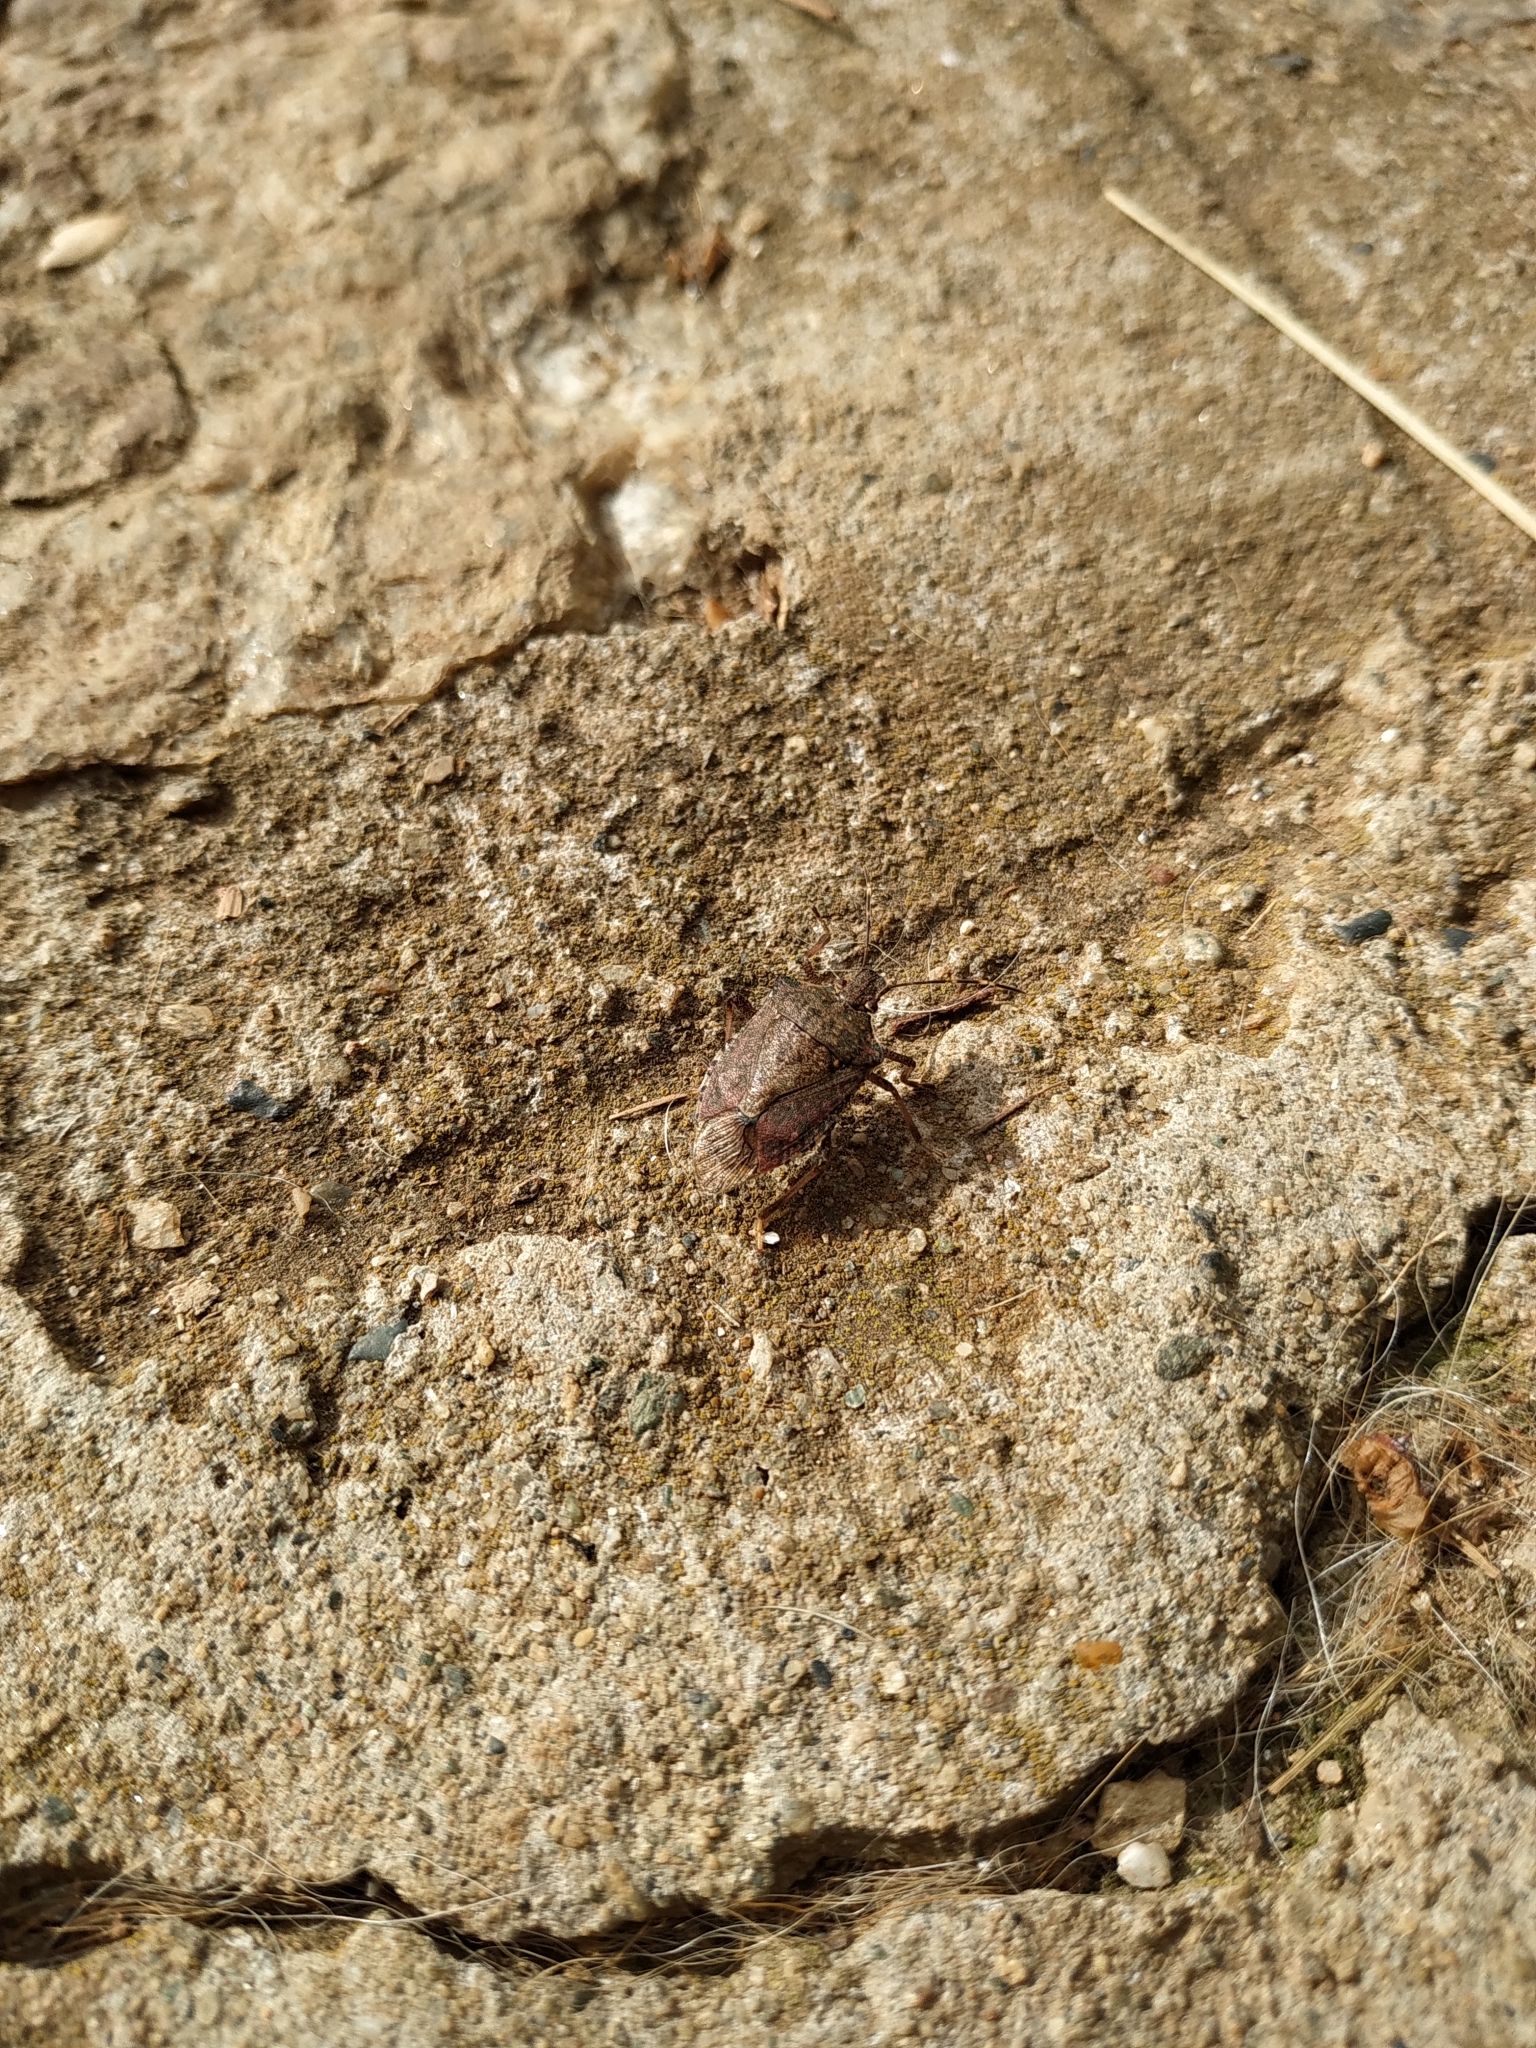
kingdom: Animalia
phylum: Arthropoda
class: Insecta
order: Hemiptera
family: Pentatomidae
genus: Halyomorpha
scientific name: Halyomorpha halys
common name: Brown marmorated stink bug
